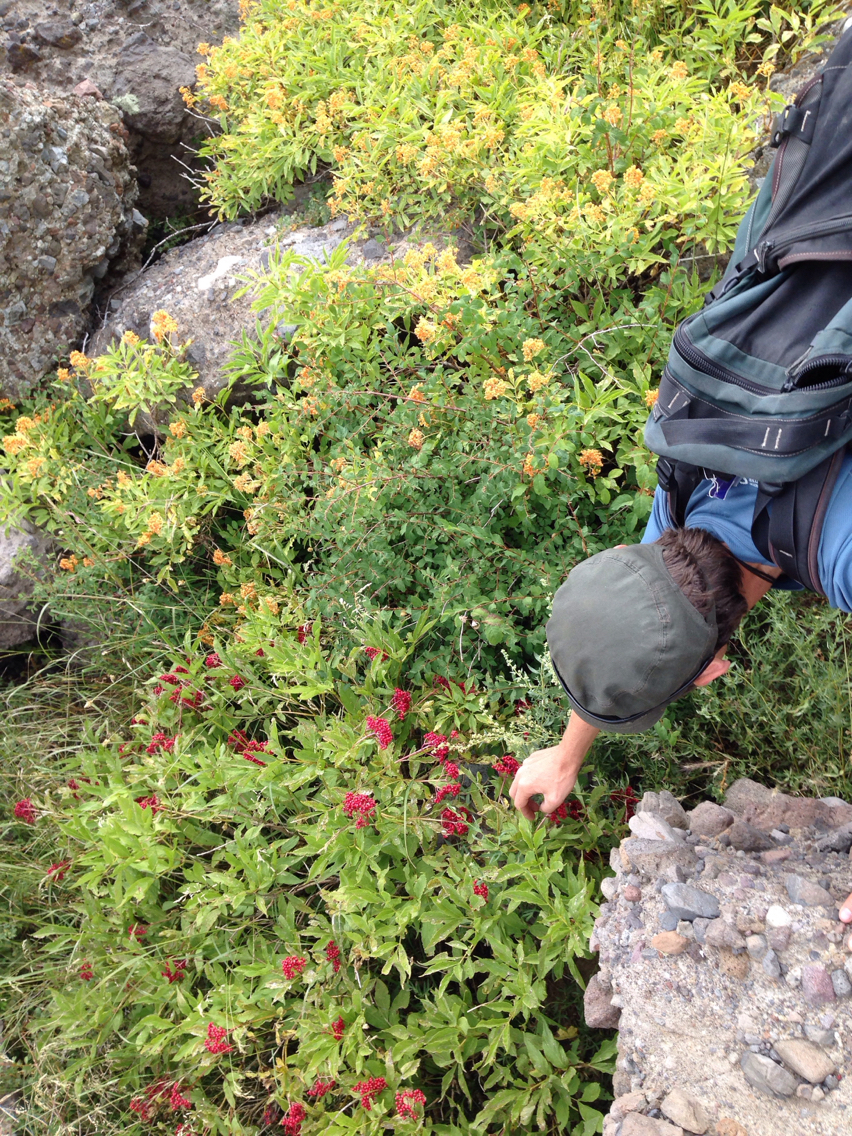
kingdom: Plantae
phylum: Tracheophyta
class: Magnoliopsida
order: Dipsacales
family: Viburnaceae
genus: Sambucus
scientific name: Sambucus racemosa
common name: Red-berried elder
